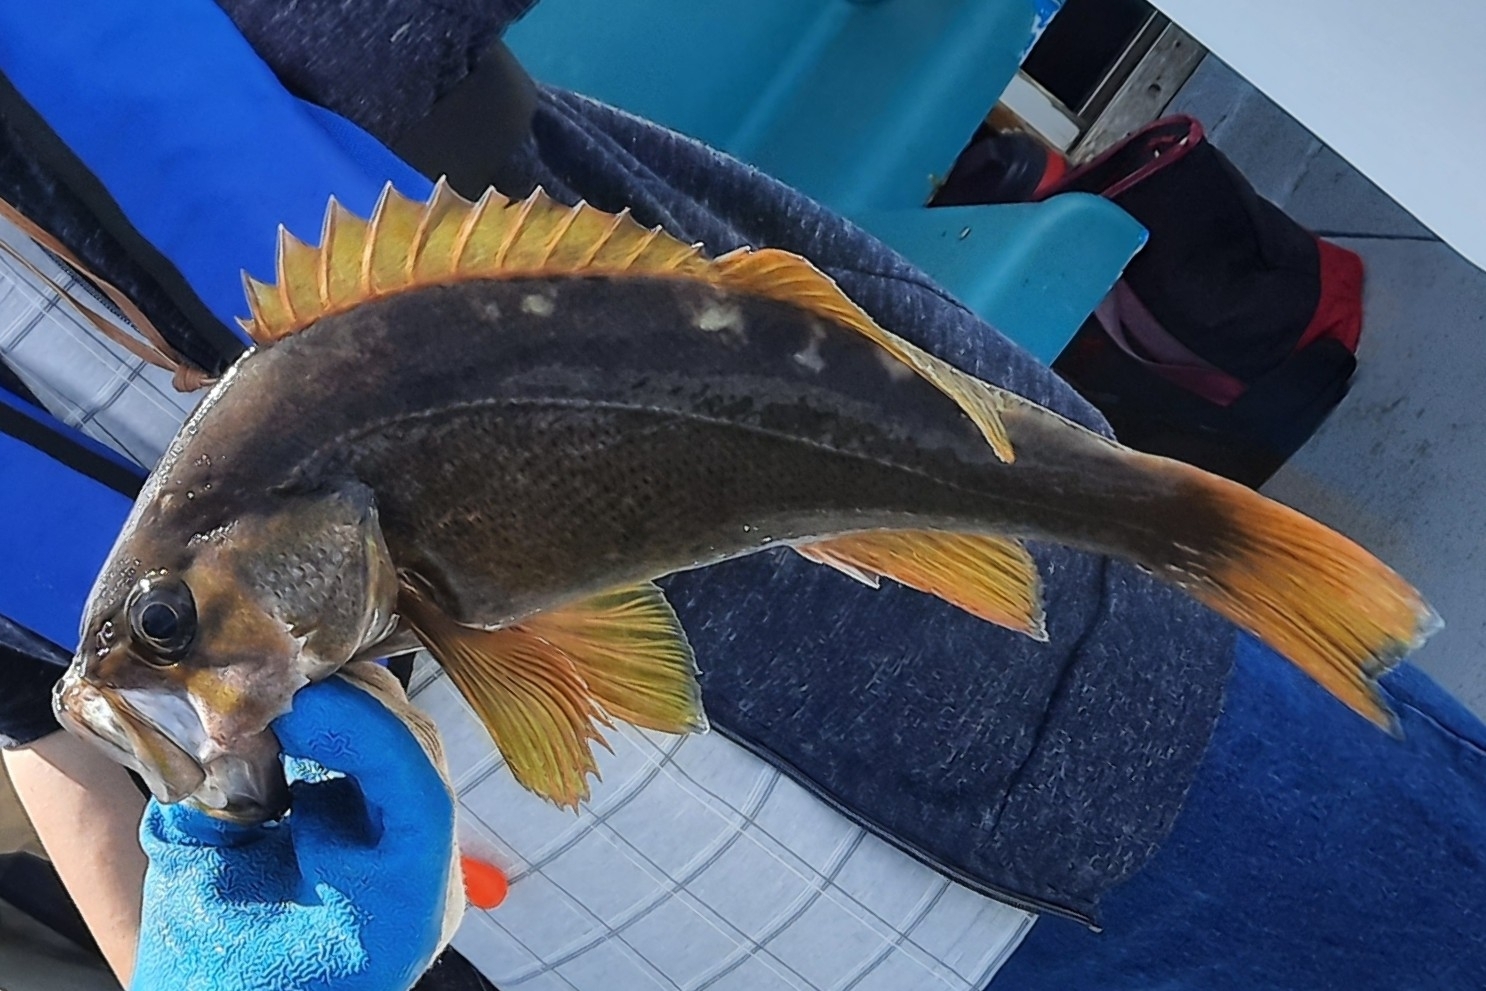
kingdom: Animalia
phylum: Chordata
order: Scorpaeniformes
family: Sebastidae
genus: Sebastes
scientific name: Sebastes flavidus
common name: Yellowtail rockfish
